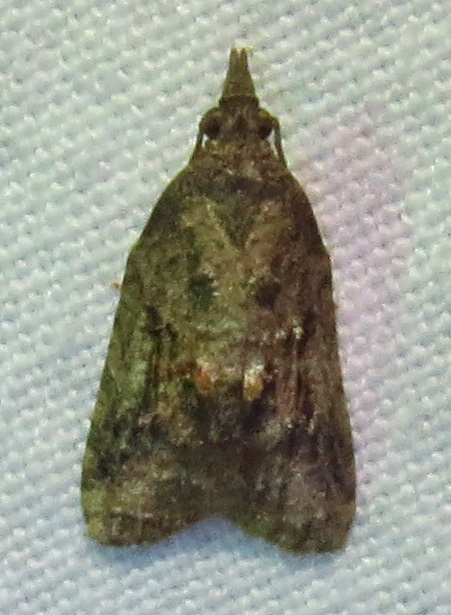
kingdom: Animalia
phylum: Arthropoda
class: Insecta
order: Lepidoptera
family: Tortricidae
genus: Platynota
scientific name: Platynota idaeusalis
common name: Tufted apple bud moth
